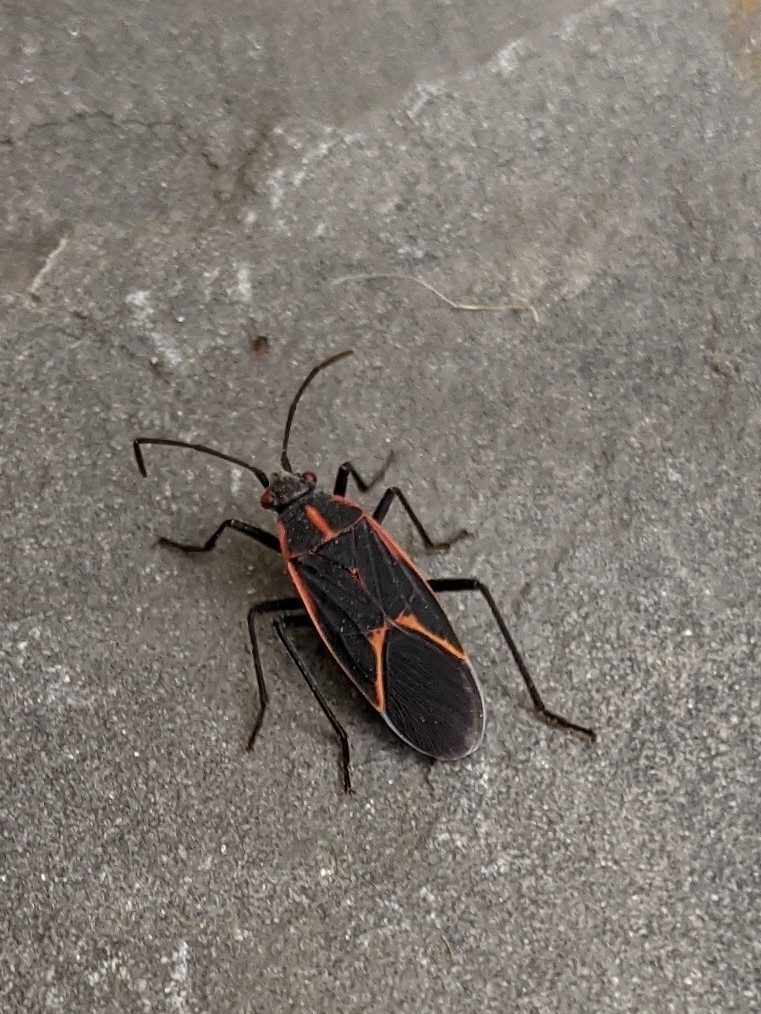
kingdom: Animalia
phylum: Arthropoda
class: Insecta
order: Hemiptera
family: Rhopalidae
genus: Boisea
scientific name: Boisea trivittata
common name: Boxelder bug
